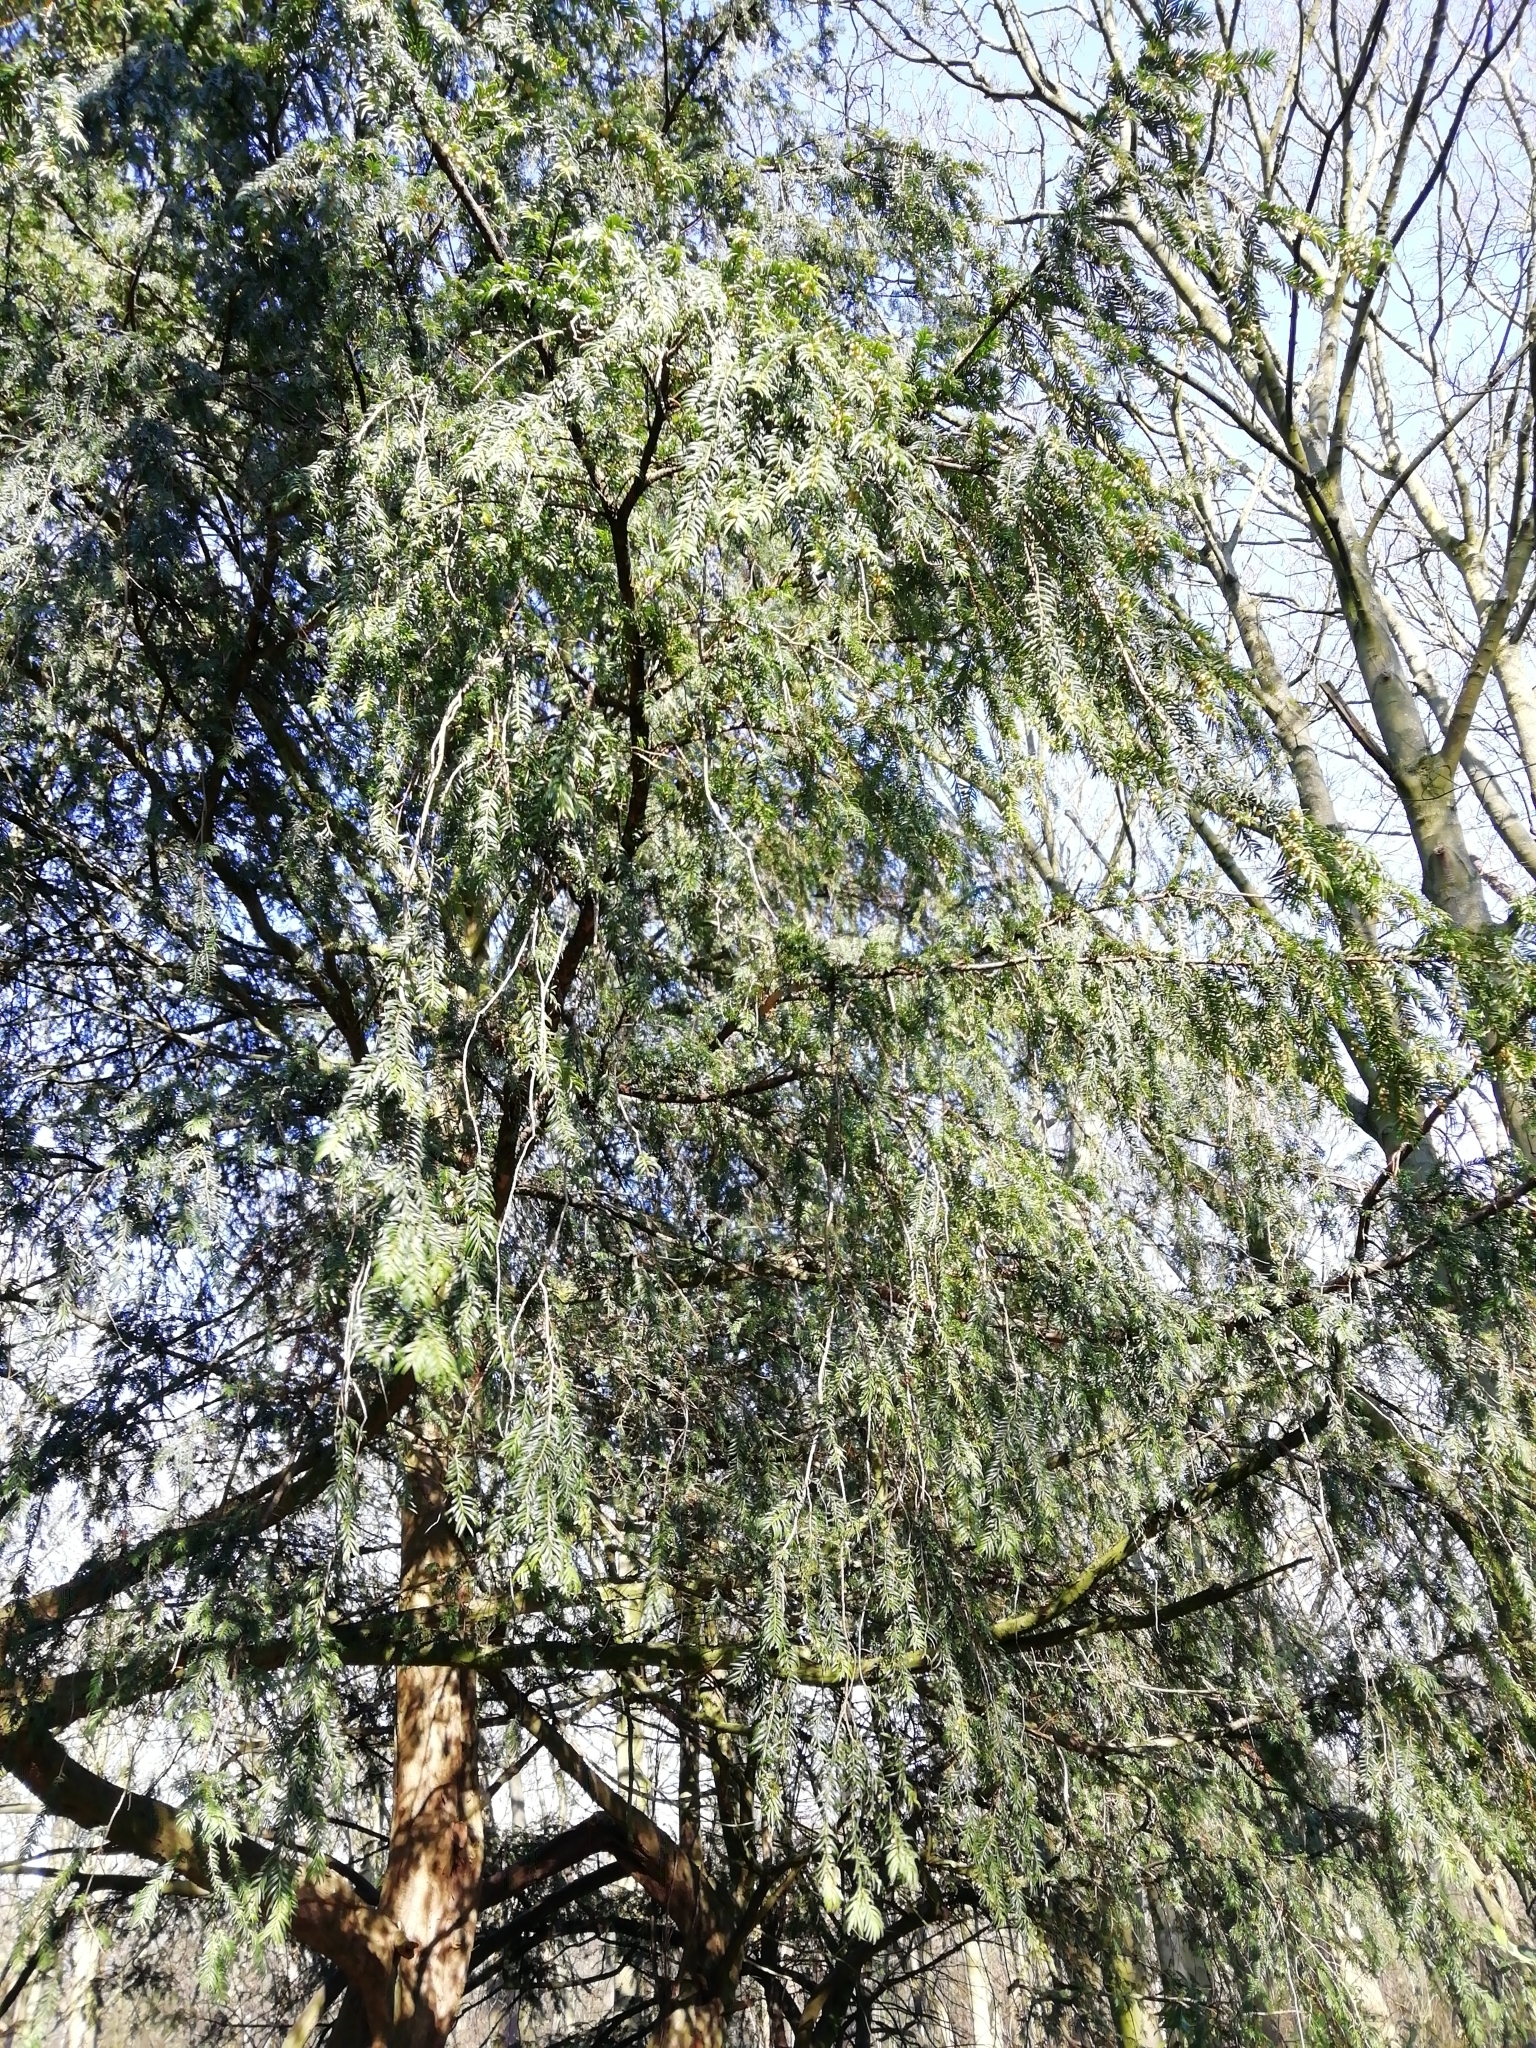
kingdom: Plantae
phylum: Tracheophyta
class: Pinopsida
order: Pinales
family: Taxaceae
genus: Taxus
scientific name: Taxus baccata
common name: Yew
